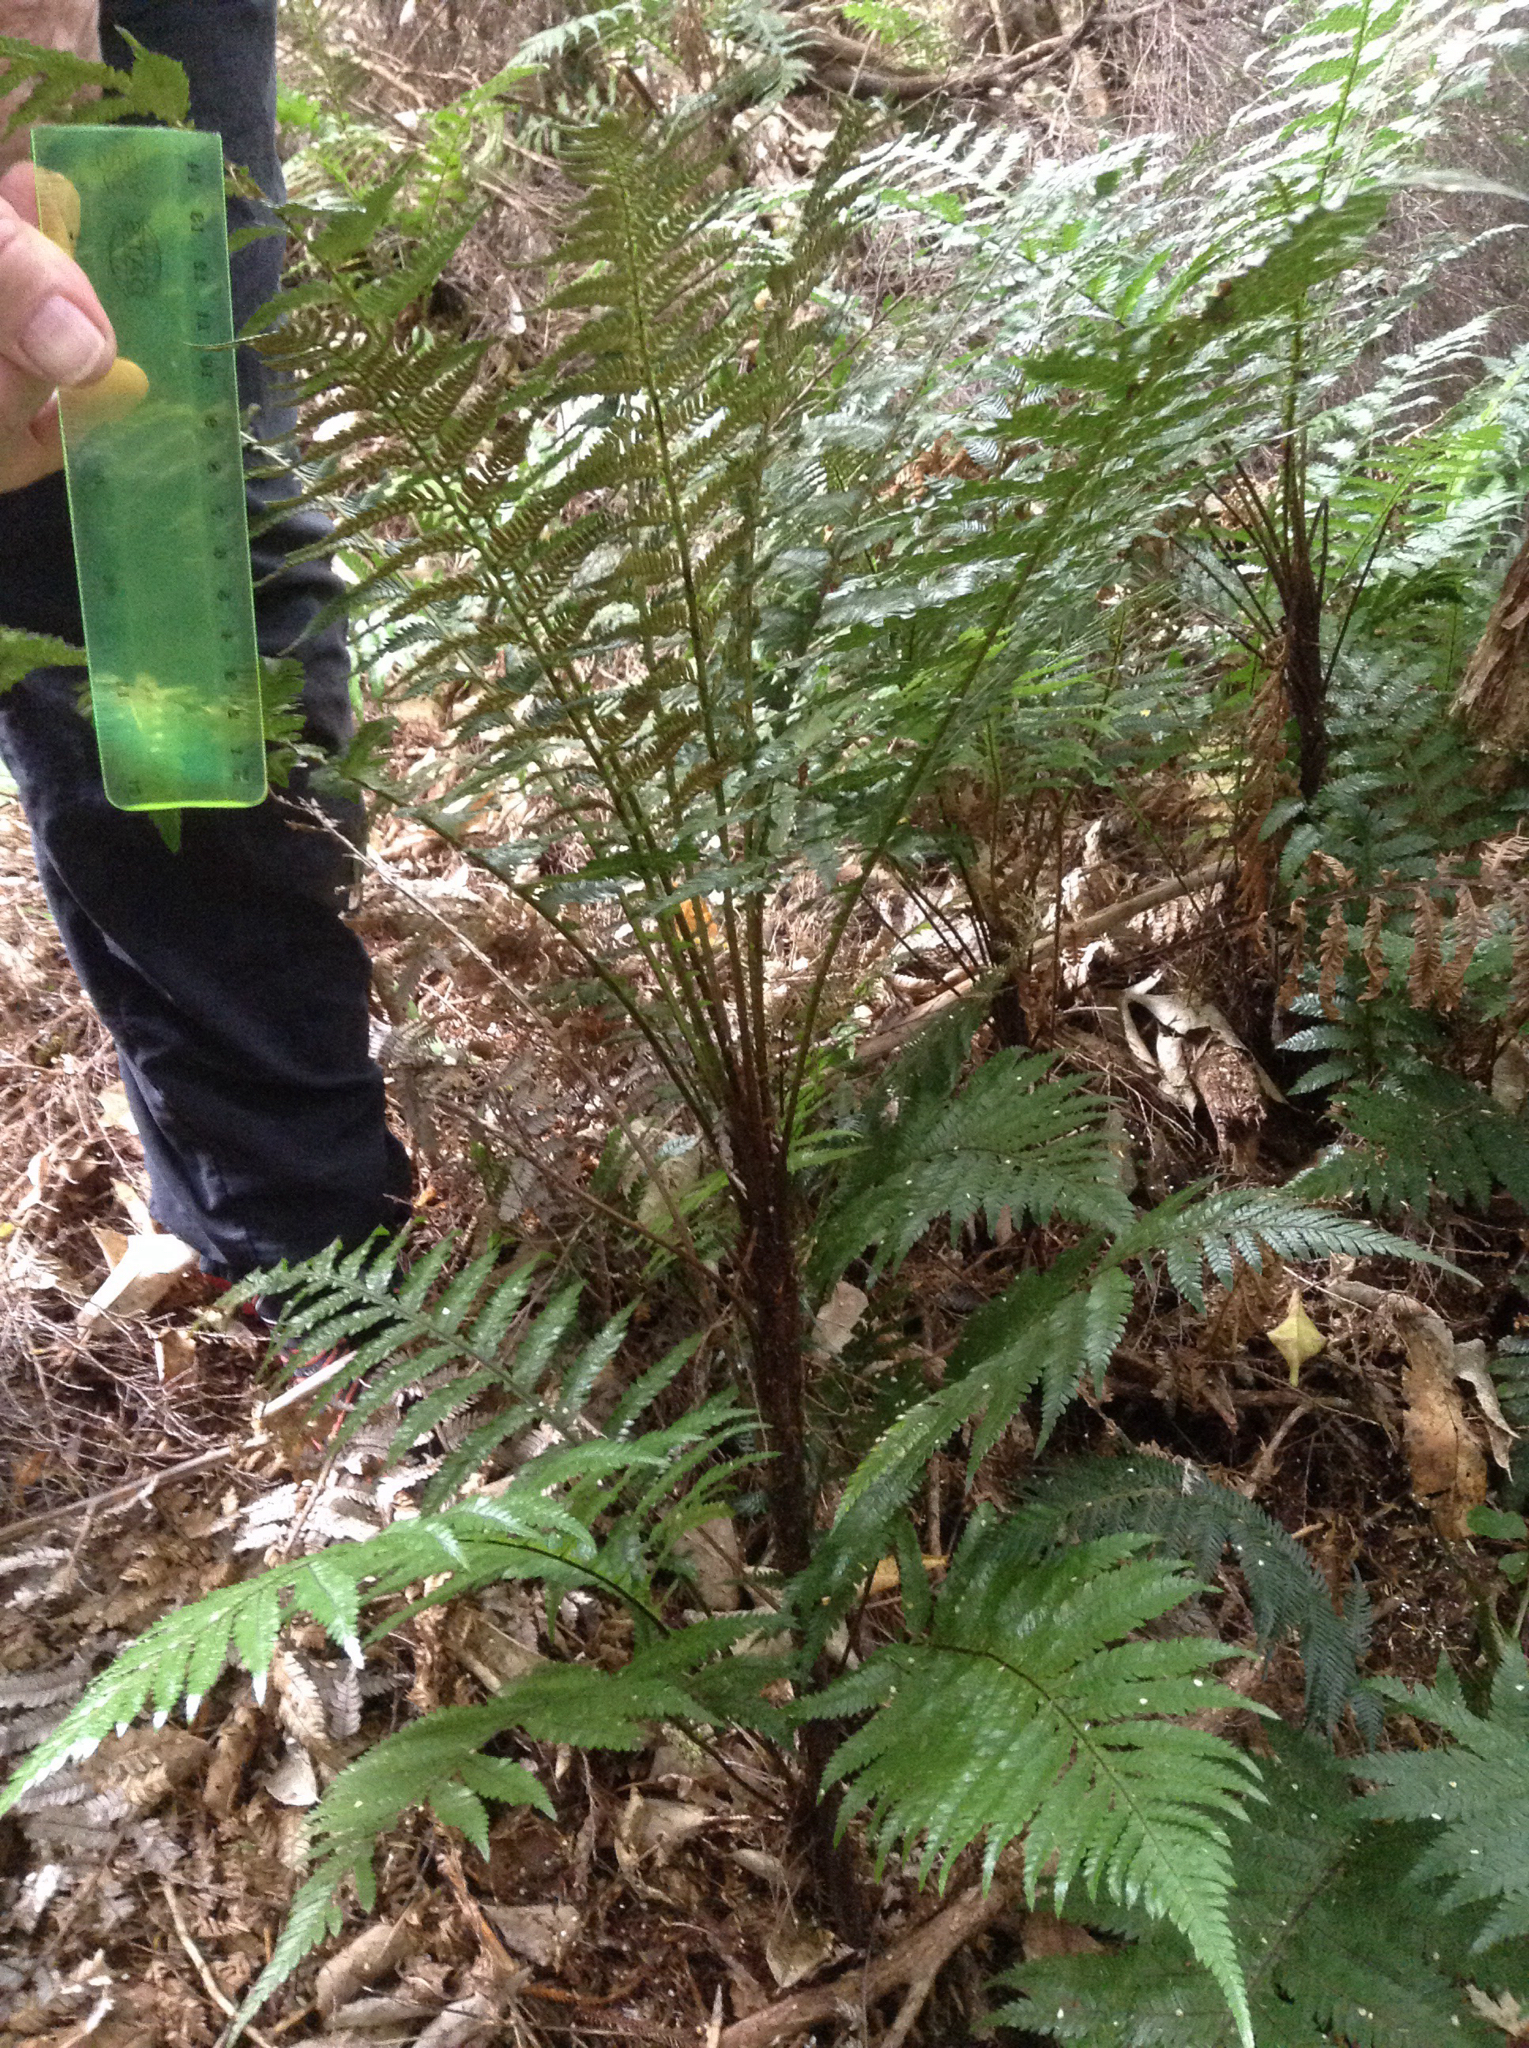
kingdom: Plantae
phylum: Tracheophyta
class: Polypodiopsida
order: Polypodiales
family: Blechnaceae
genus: Diploblechnum
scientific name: Diploblechnum fraseri
